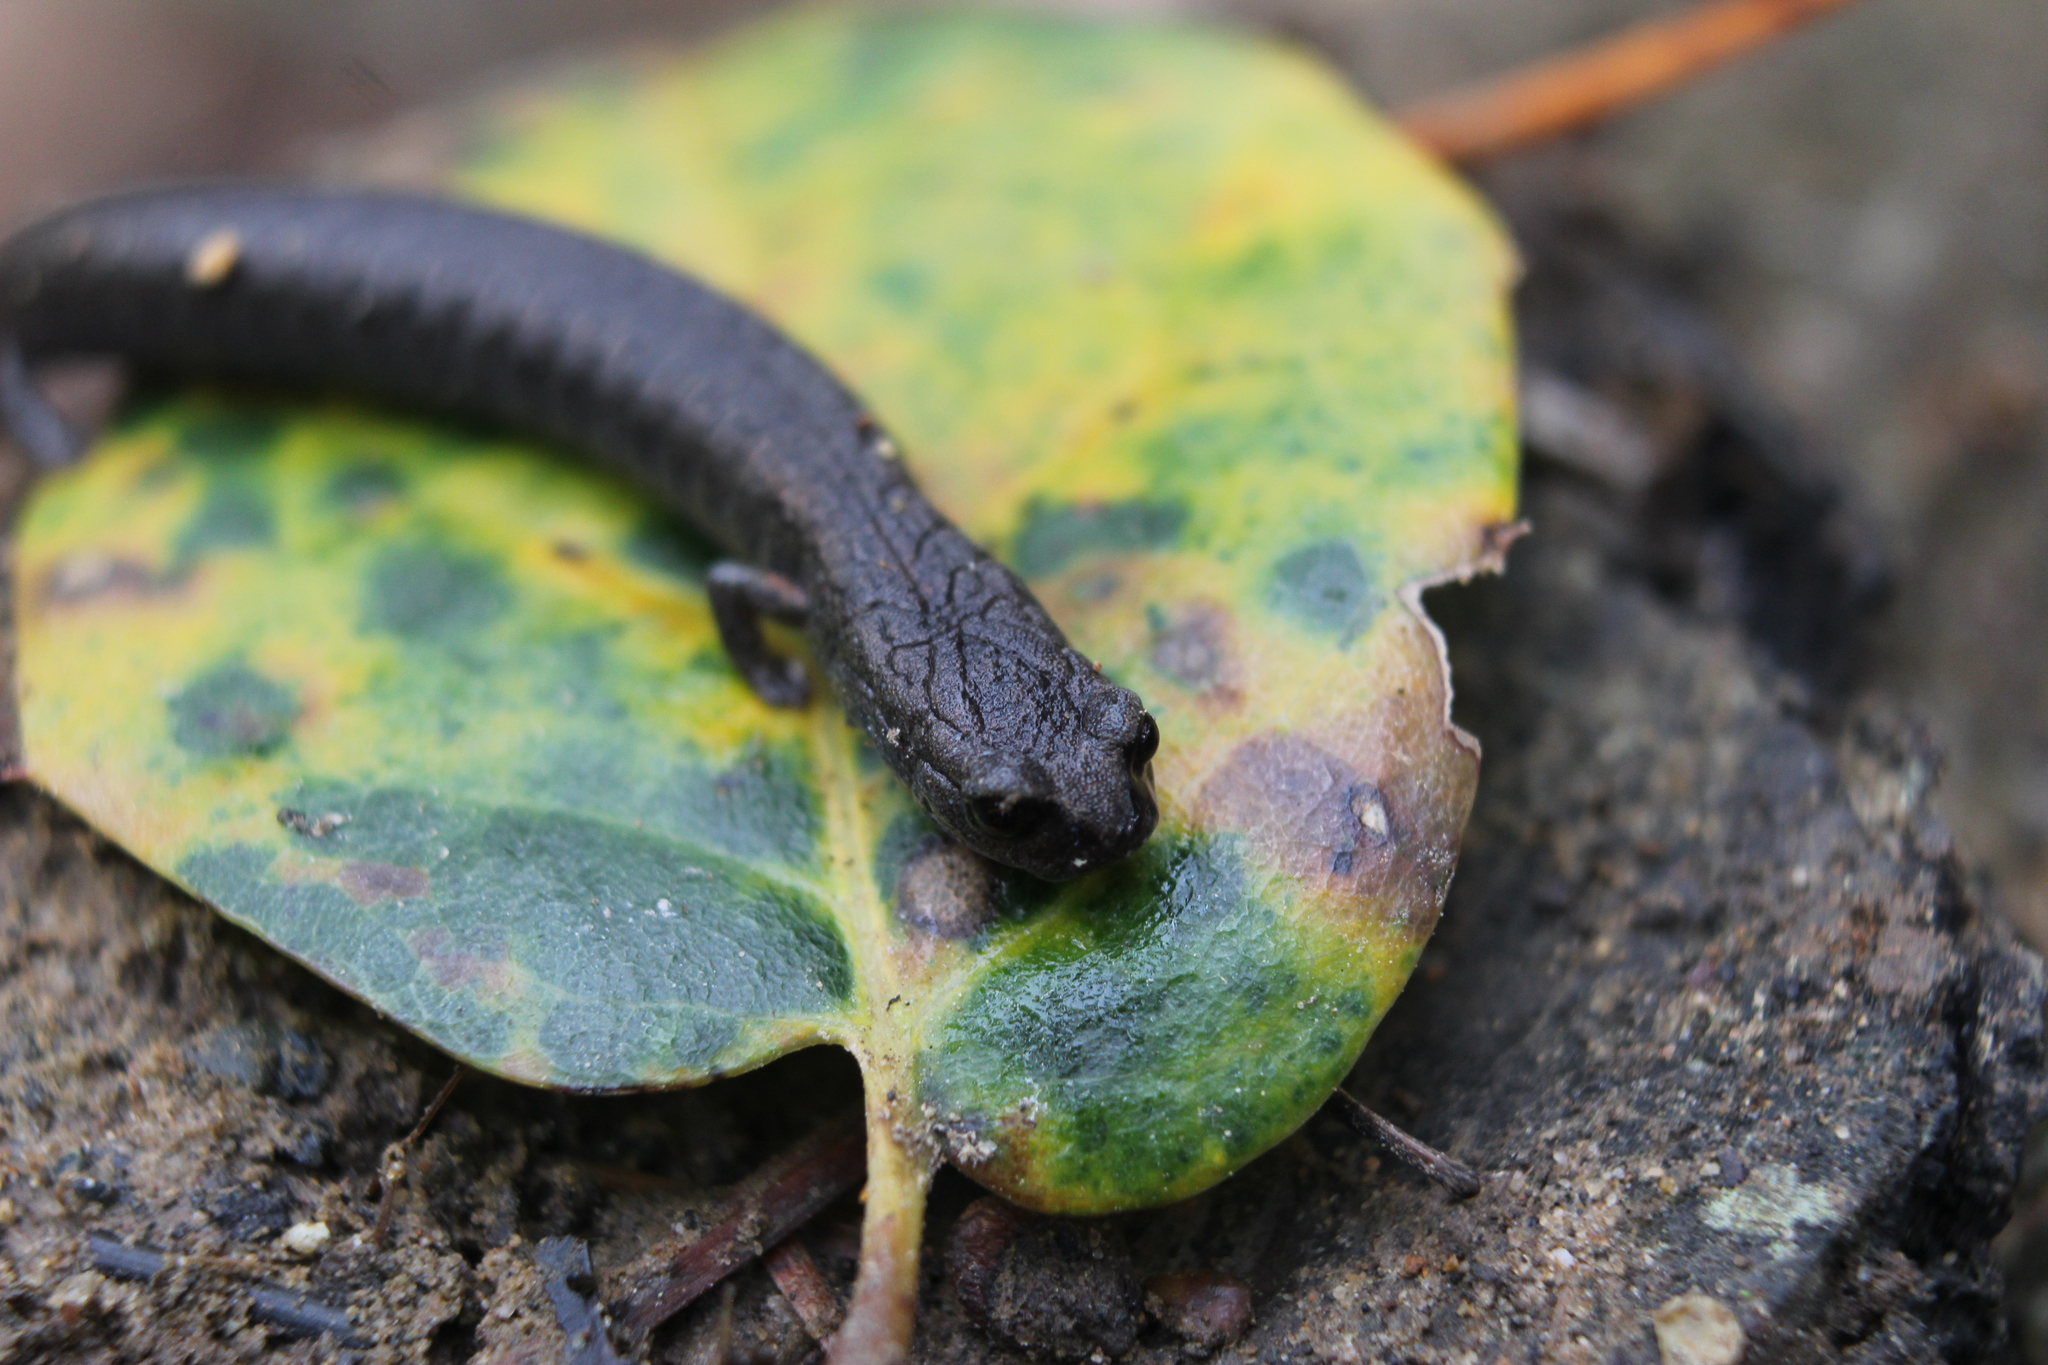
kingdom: Animalia
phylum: Chordata
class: Amphibia
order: Caudata
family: Plethodontidae
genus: Batrachoseps
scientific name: Batrachoseps attenuatus
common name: California slender salamander
